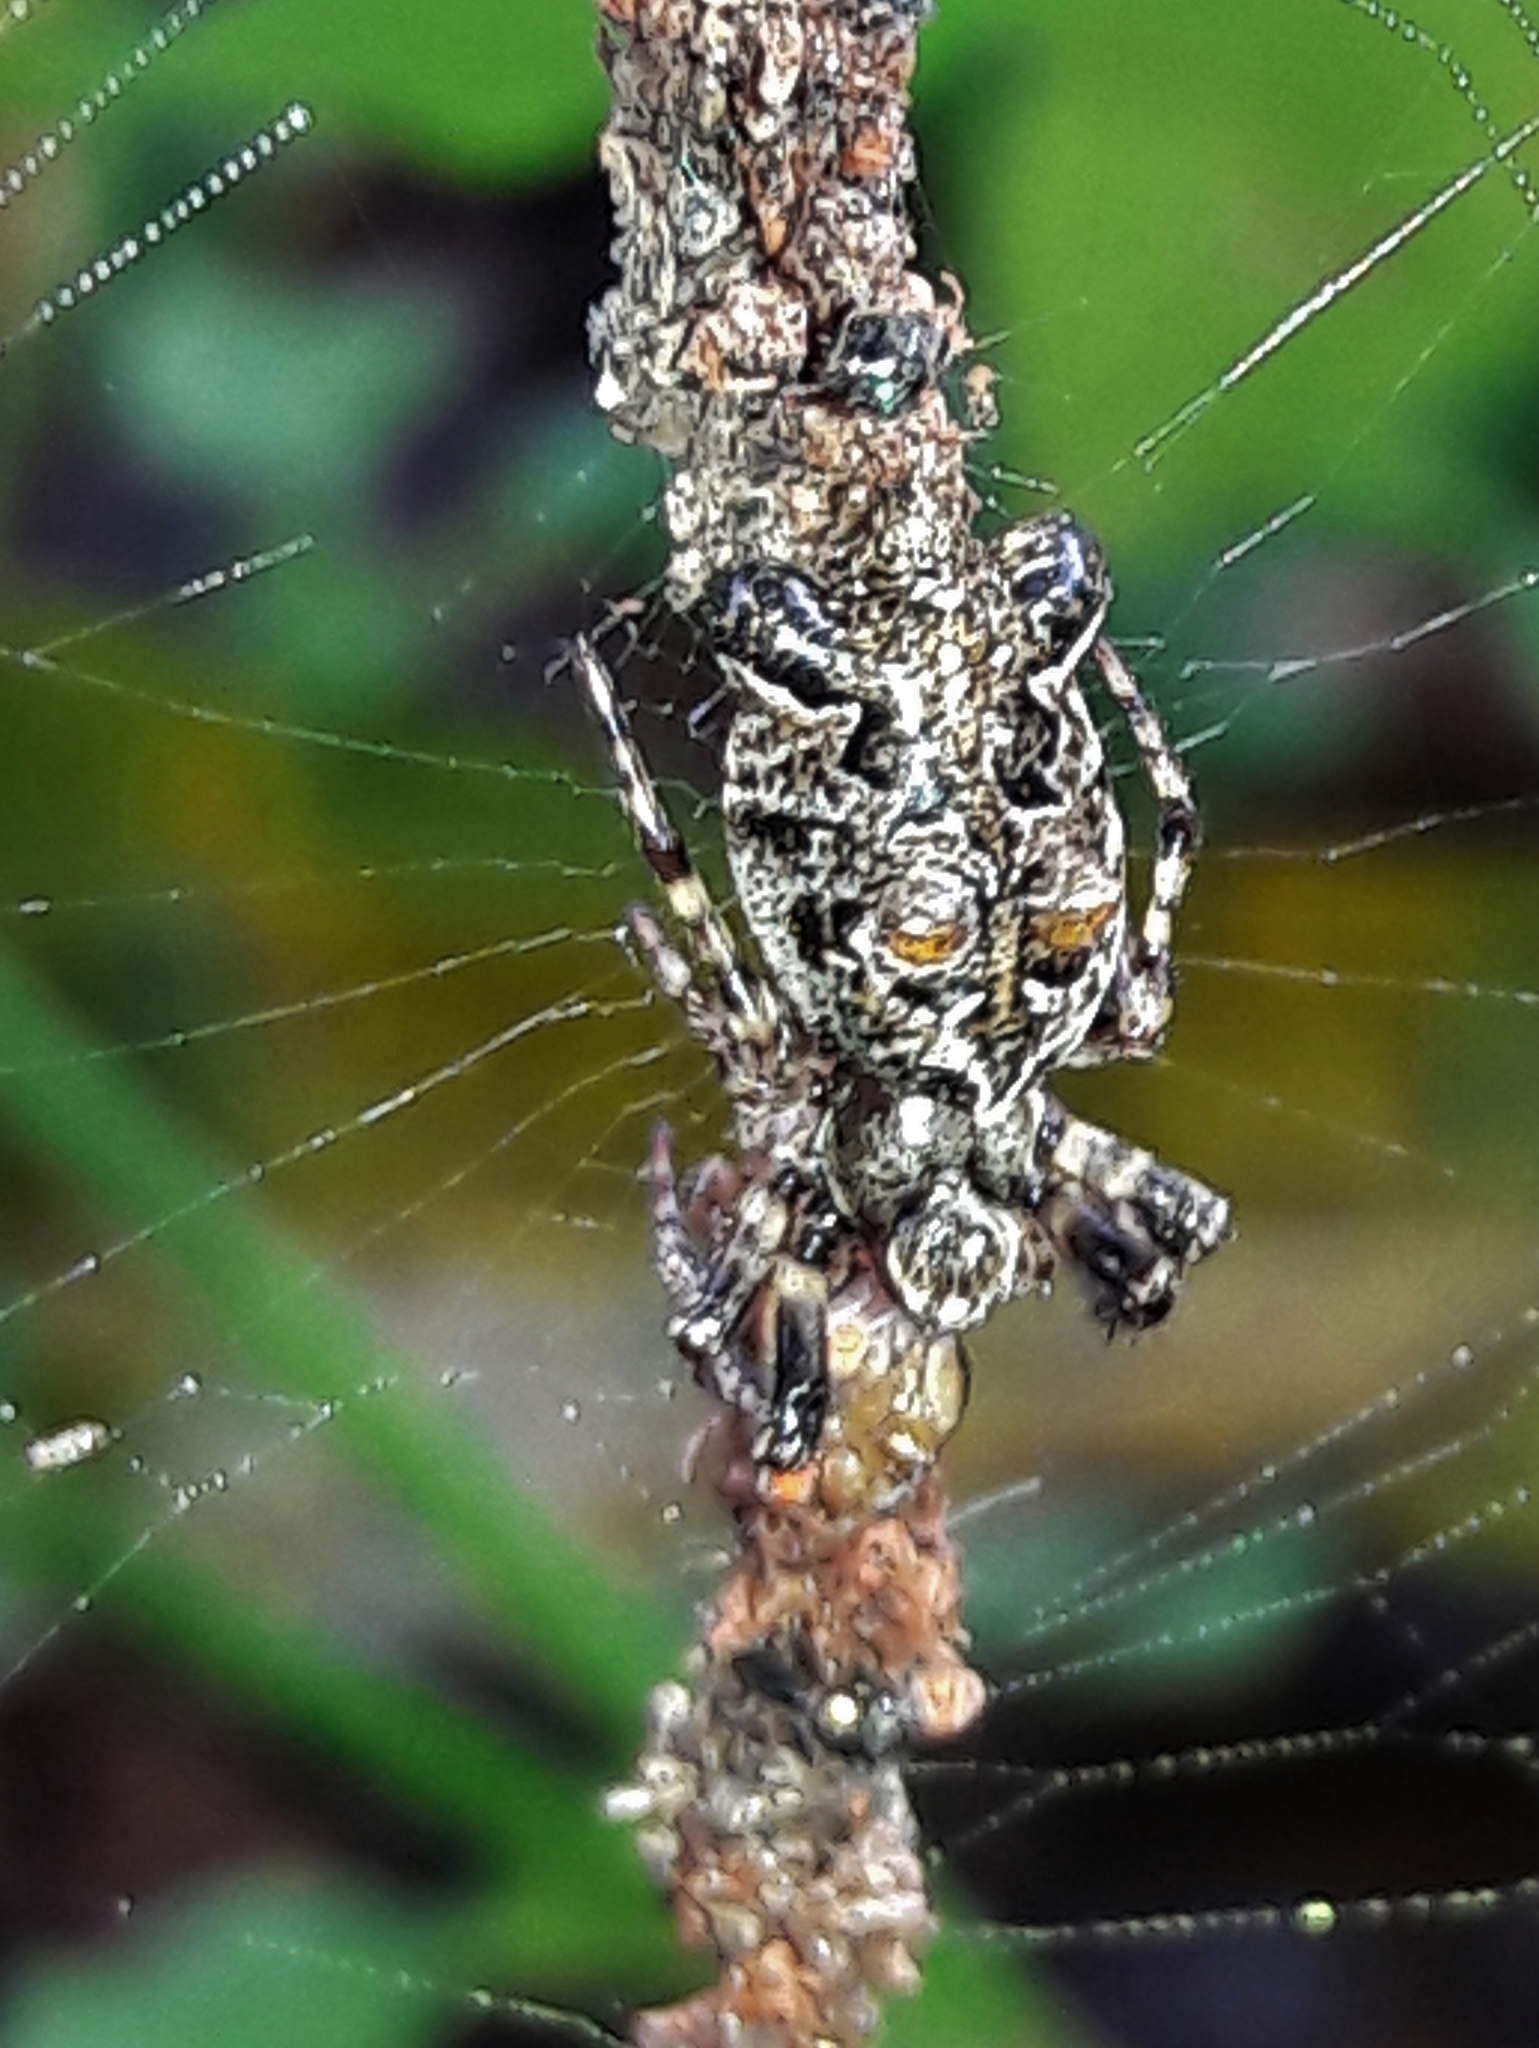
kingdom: Animalia
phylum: Arthropoda
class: Arachnida
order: Araneae
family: Araneidae
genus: Cyclosa
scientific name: Cyclosa diversa
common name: Orb weavers
